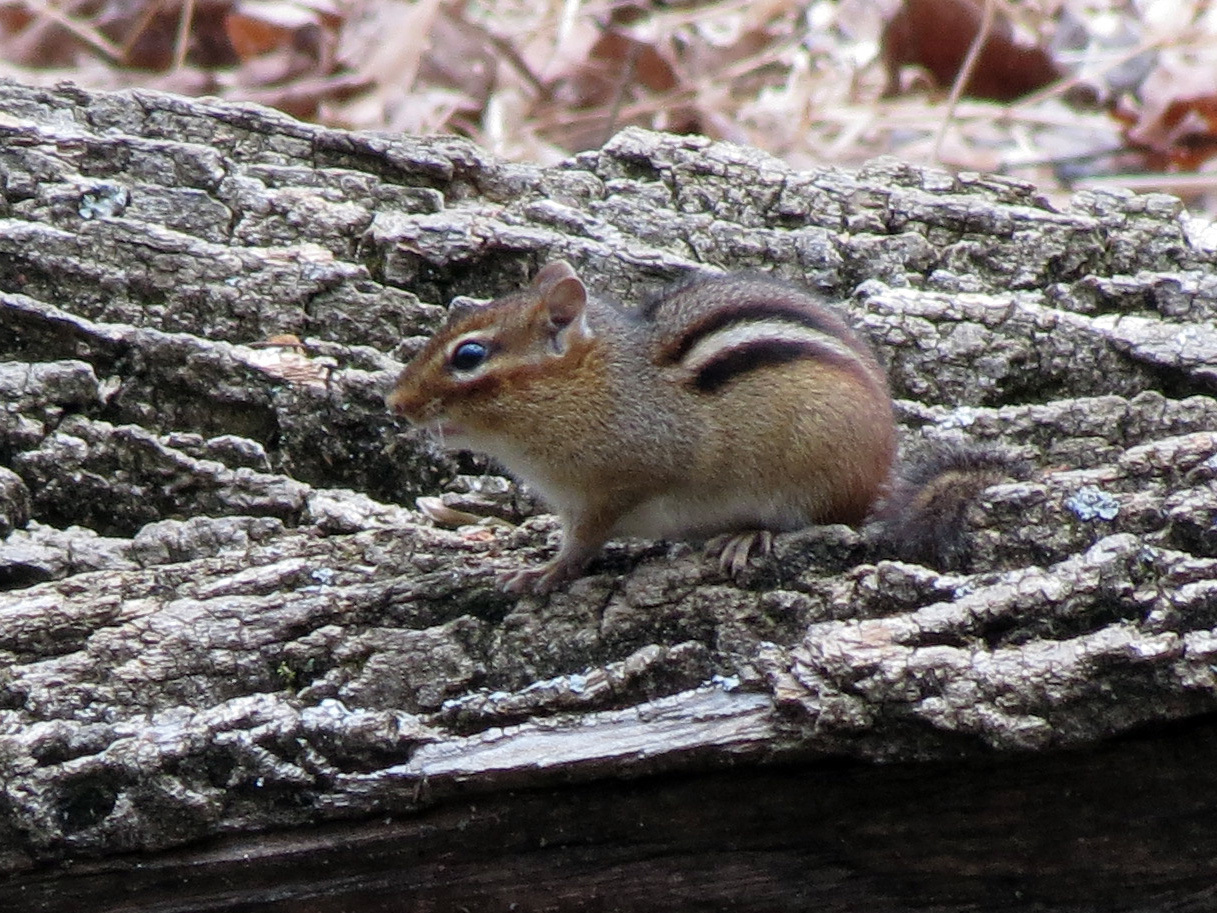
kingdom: Animalia
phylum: Chordata
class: Mammalia
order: Rodentia
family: Sciuridae
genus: Tamias
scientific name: Tamias striatus
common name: Eastern chipmunk
